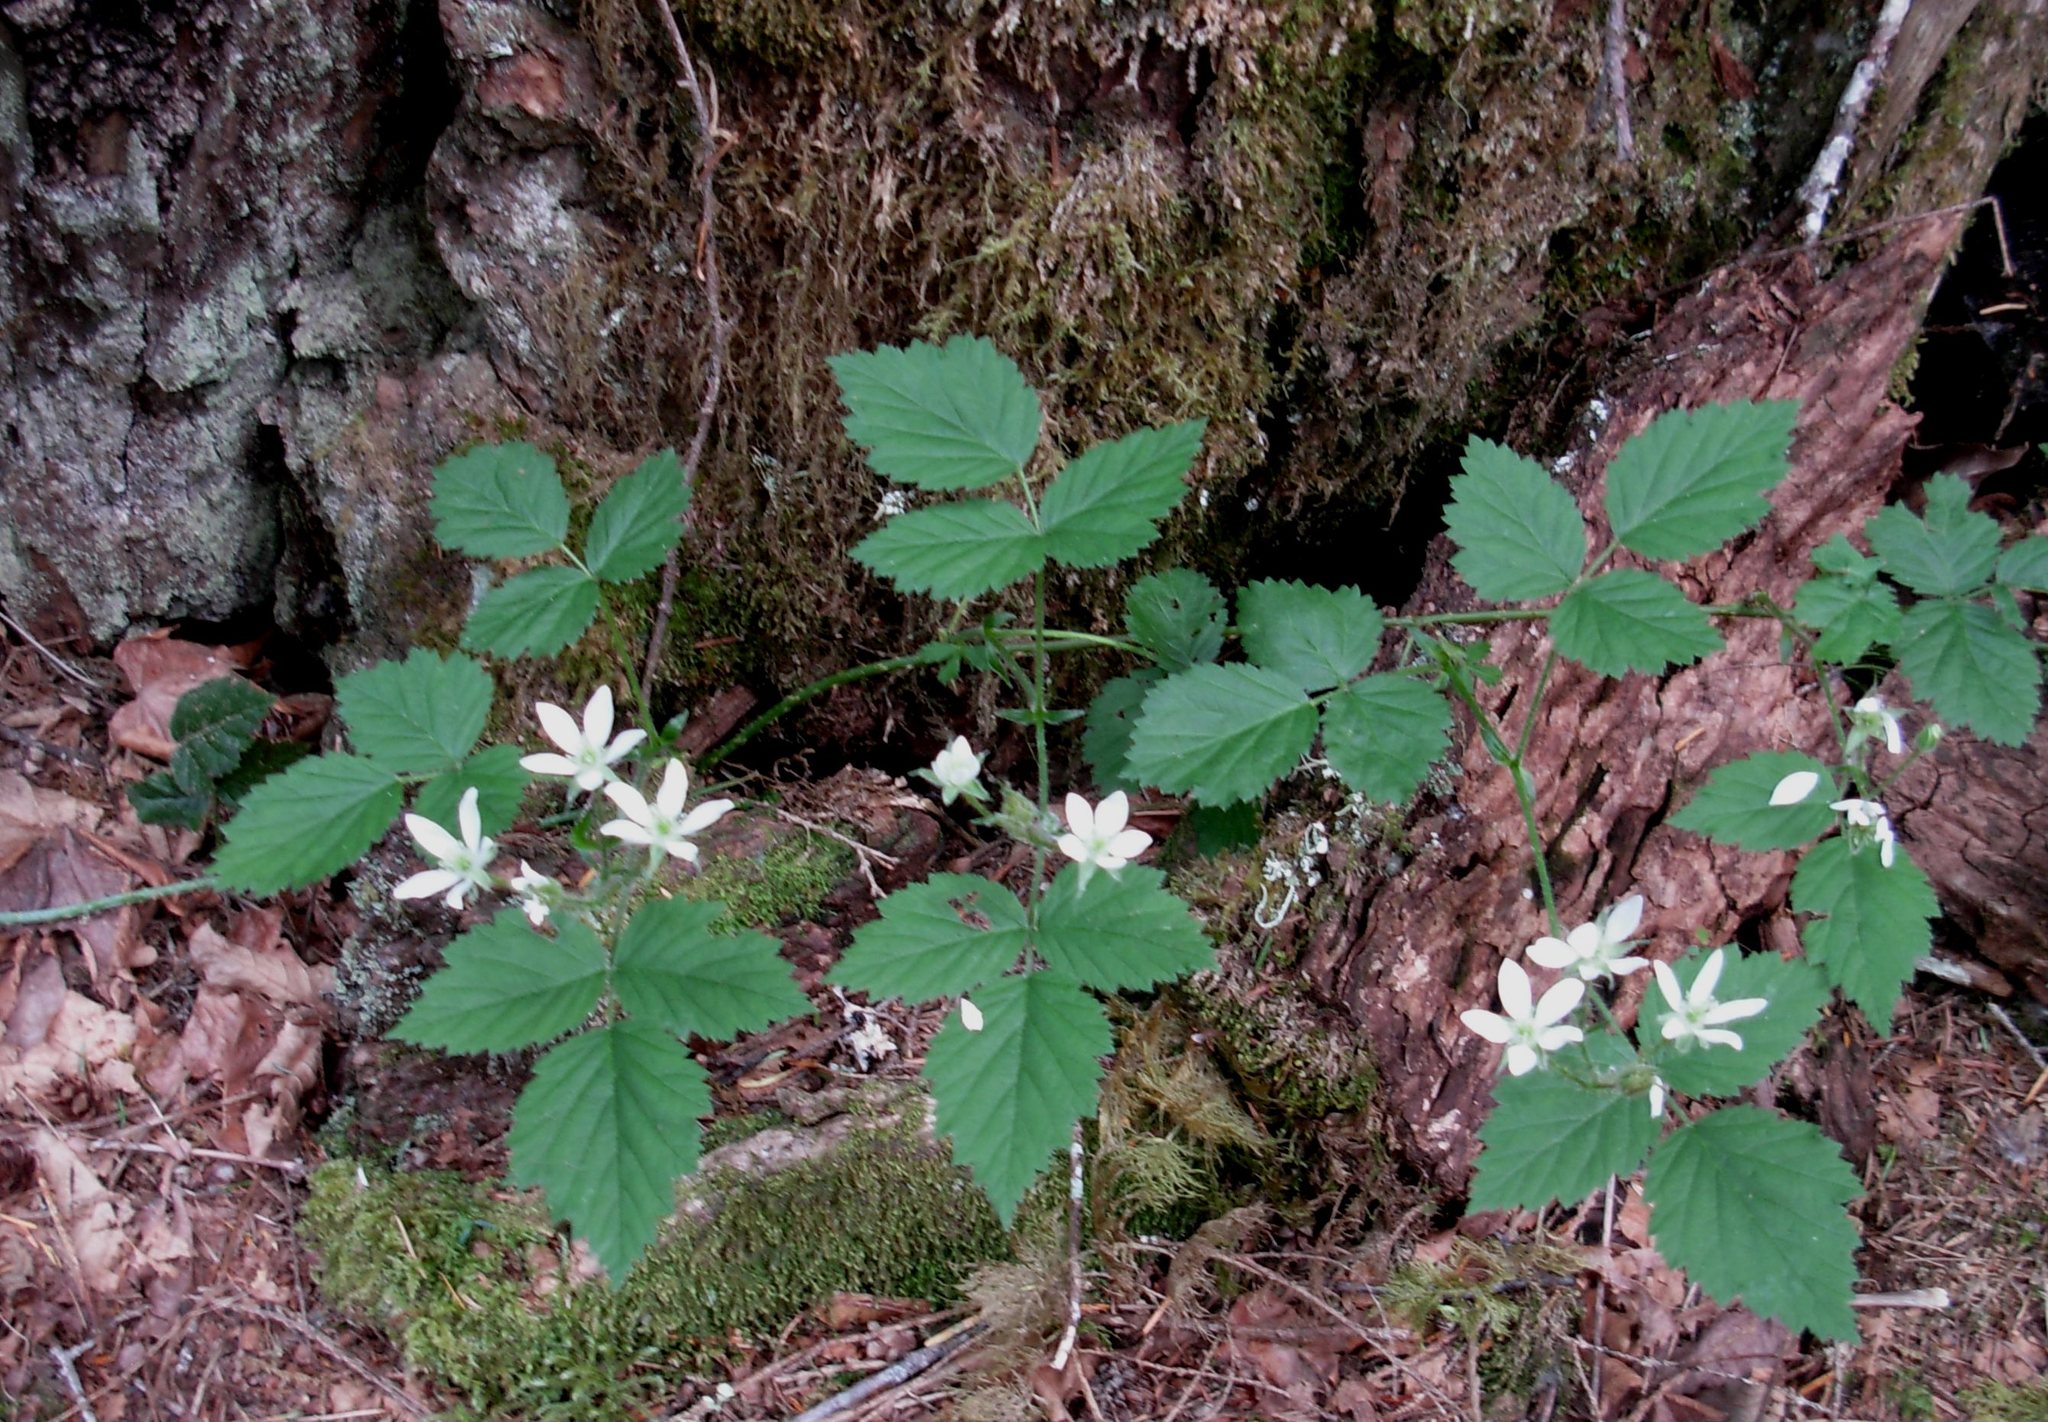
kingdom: Plantae
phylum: Tracheophyta
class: Magnoliopsida
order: Rosales
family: Rosaceae
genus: Rubus
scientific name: Rubus ursinus
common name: Pacific blackberry
